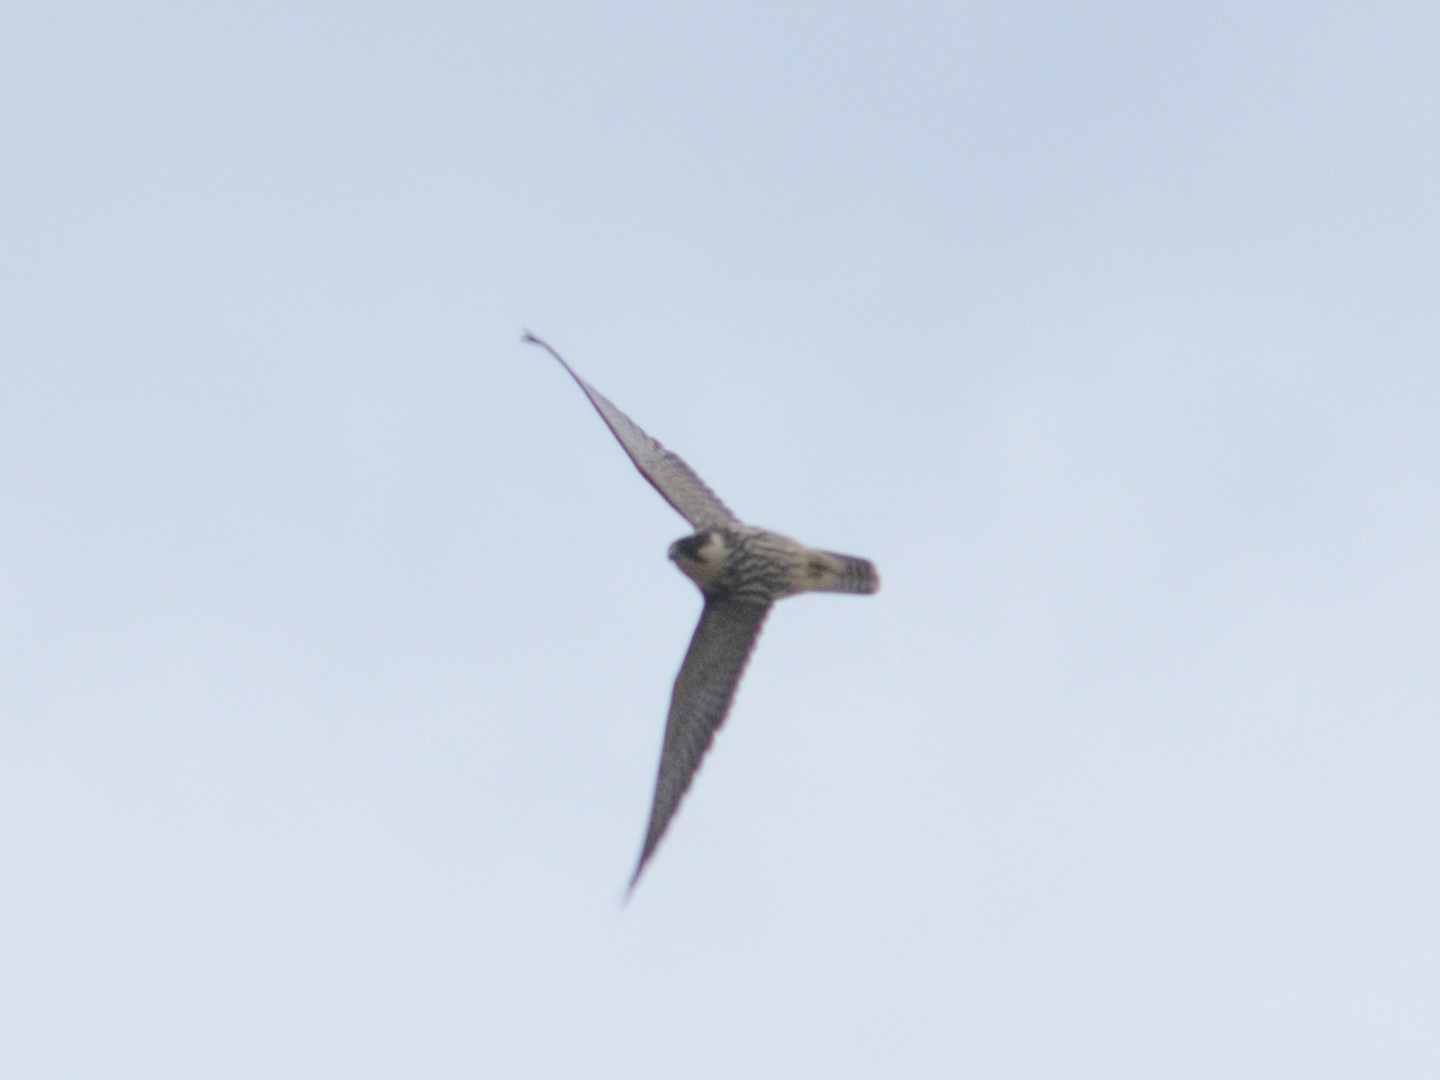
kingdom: Animalia
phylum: Chordata
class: Aves
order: Falconiformes
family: Falconidae
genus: Falco
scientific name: Falco subbuteo
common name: Eurasian hobby
